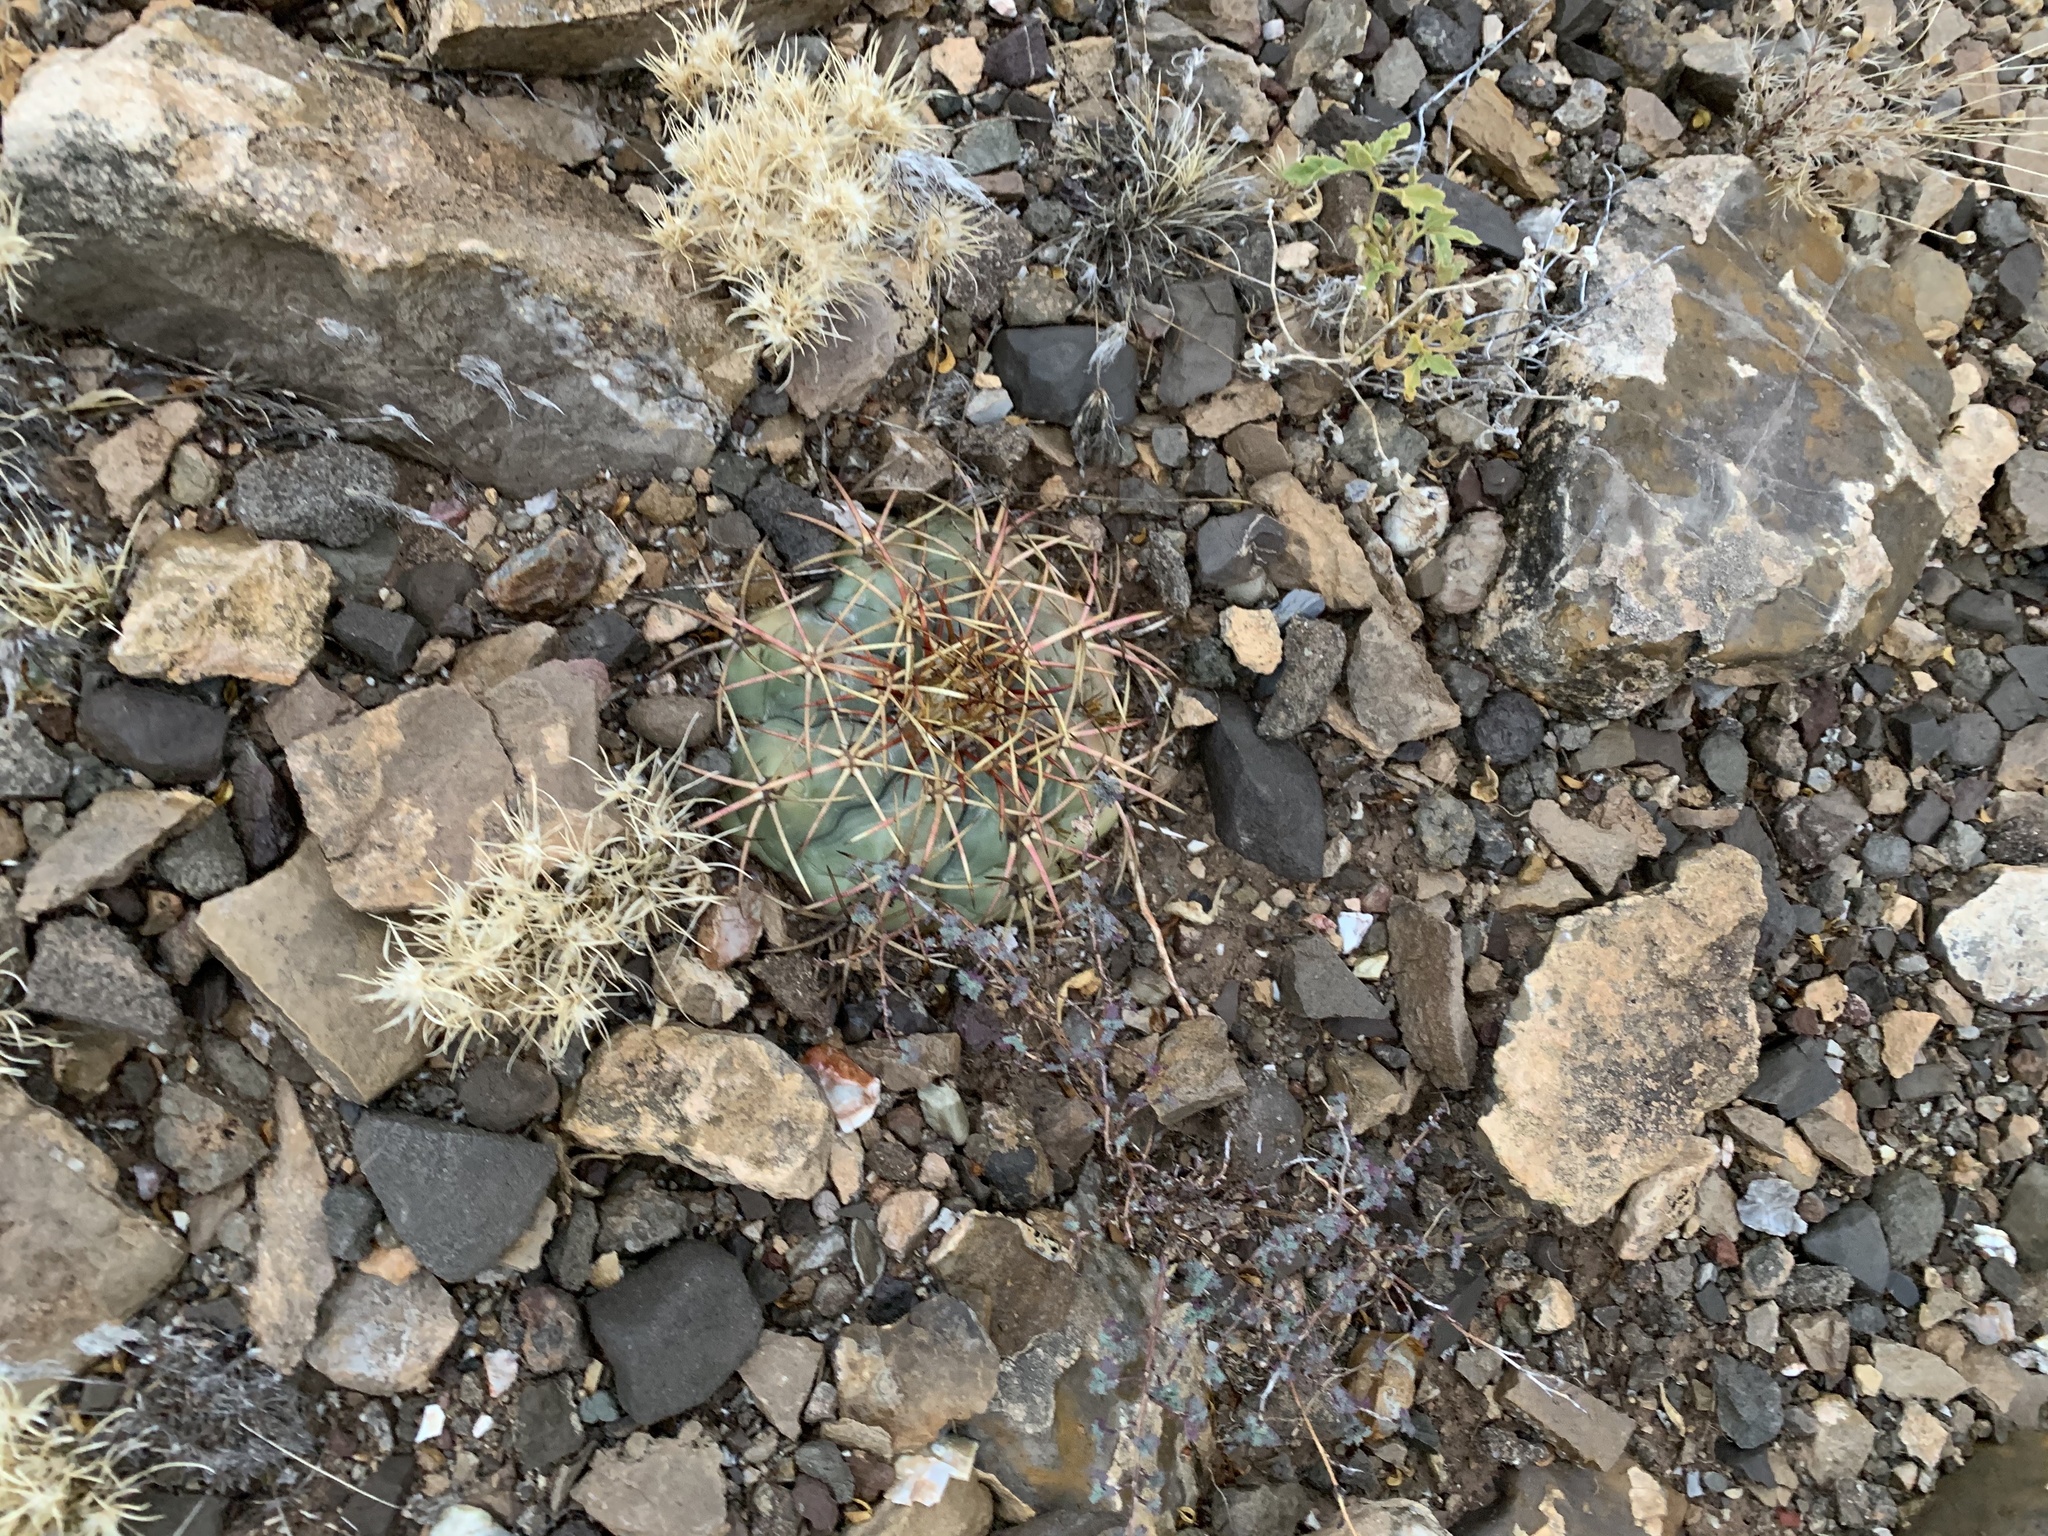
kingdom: Plantae
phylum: Tracheophyta
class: Magnoliopsida
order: Caryophyllales
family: Cactaceae
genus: Echinocactus
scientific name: Echinocactus horizonthalonius
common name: Devilshead
